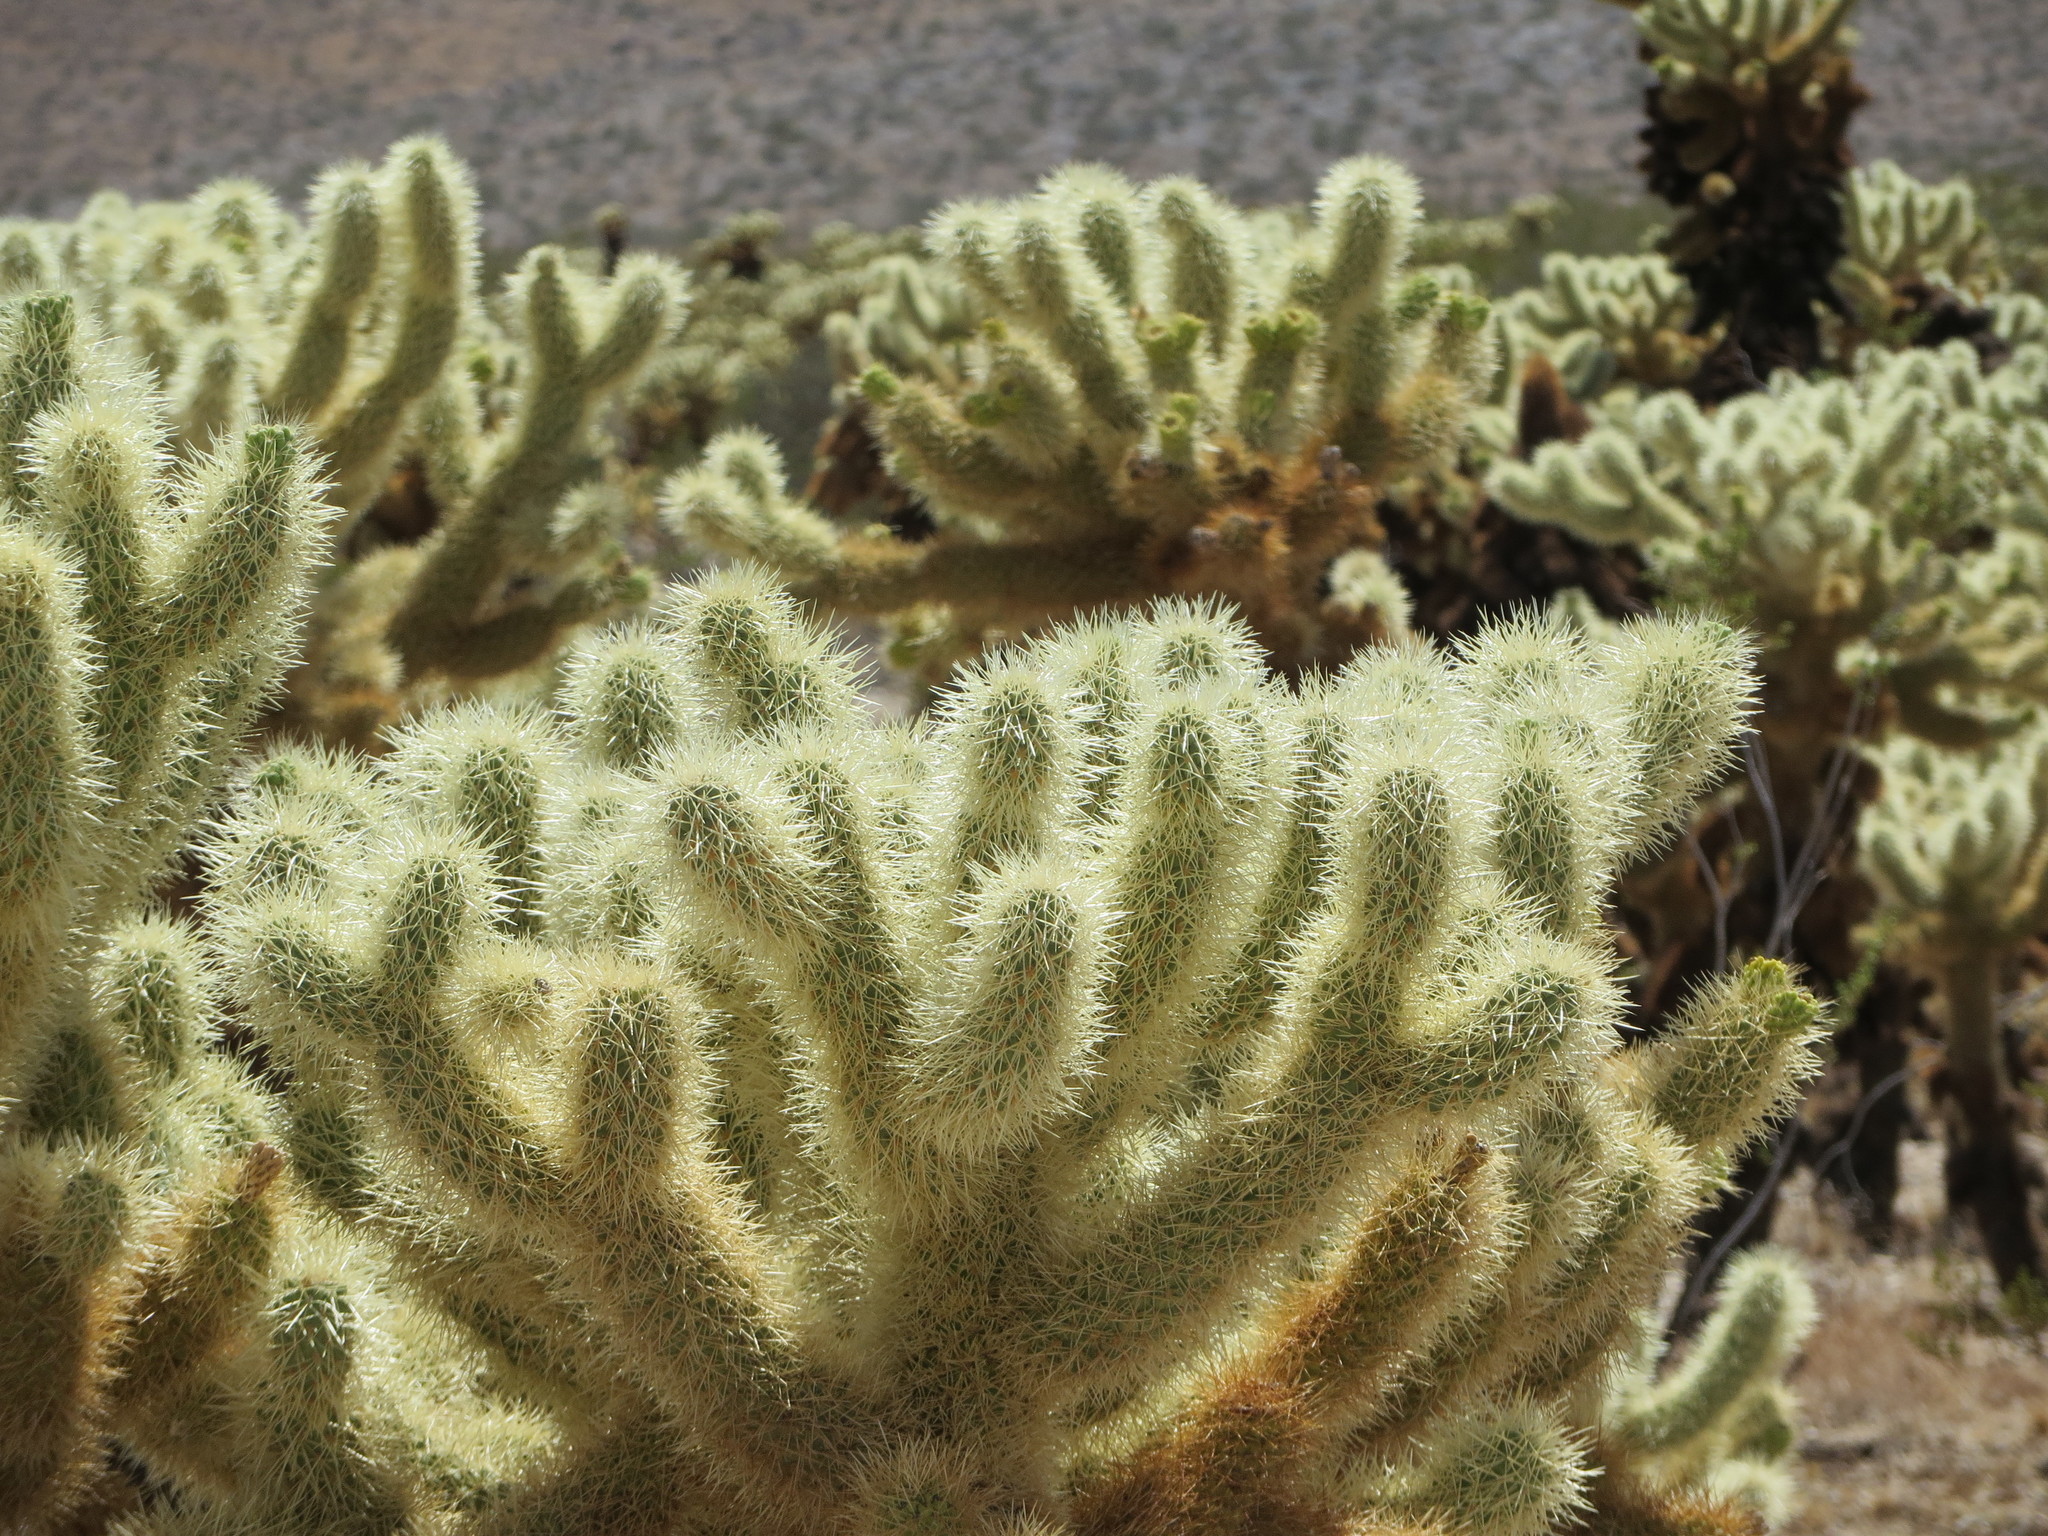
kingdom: Plantae
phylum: Tracheophyta
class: Magnoliopsida
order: Caryophyllales
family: Cactaceae
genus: Cylindropuntia
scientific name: Cylindropuntia fosbergii
